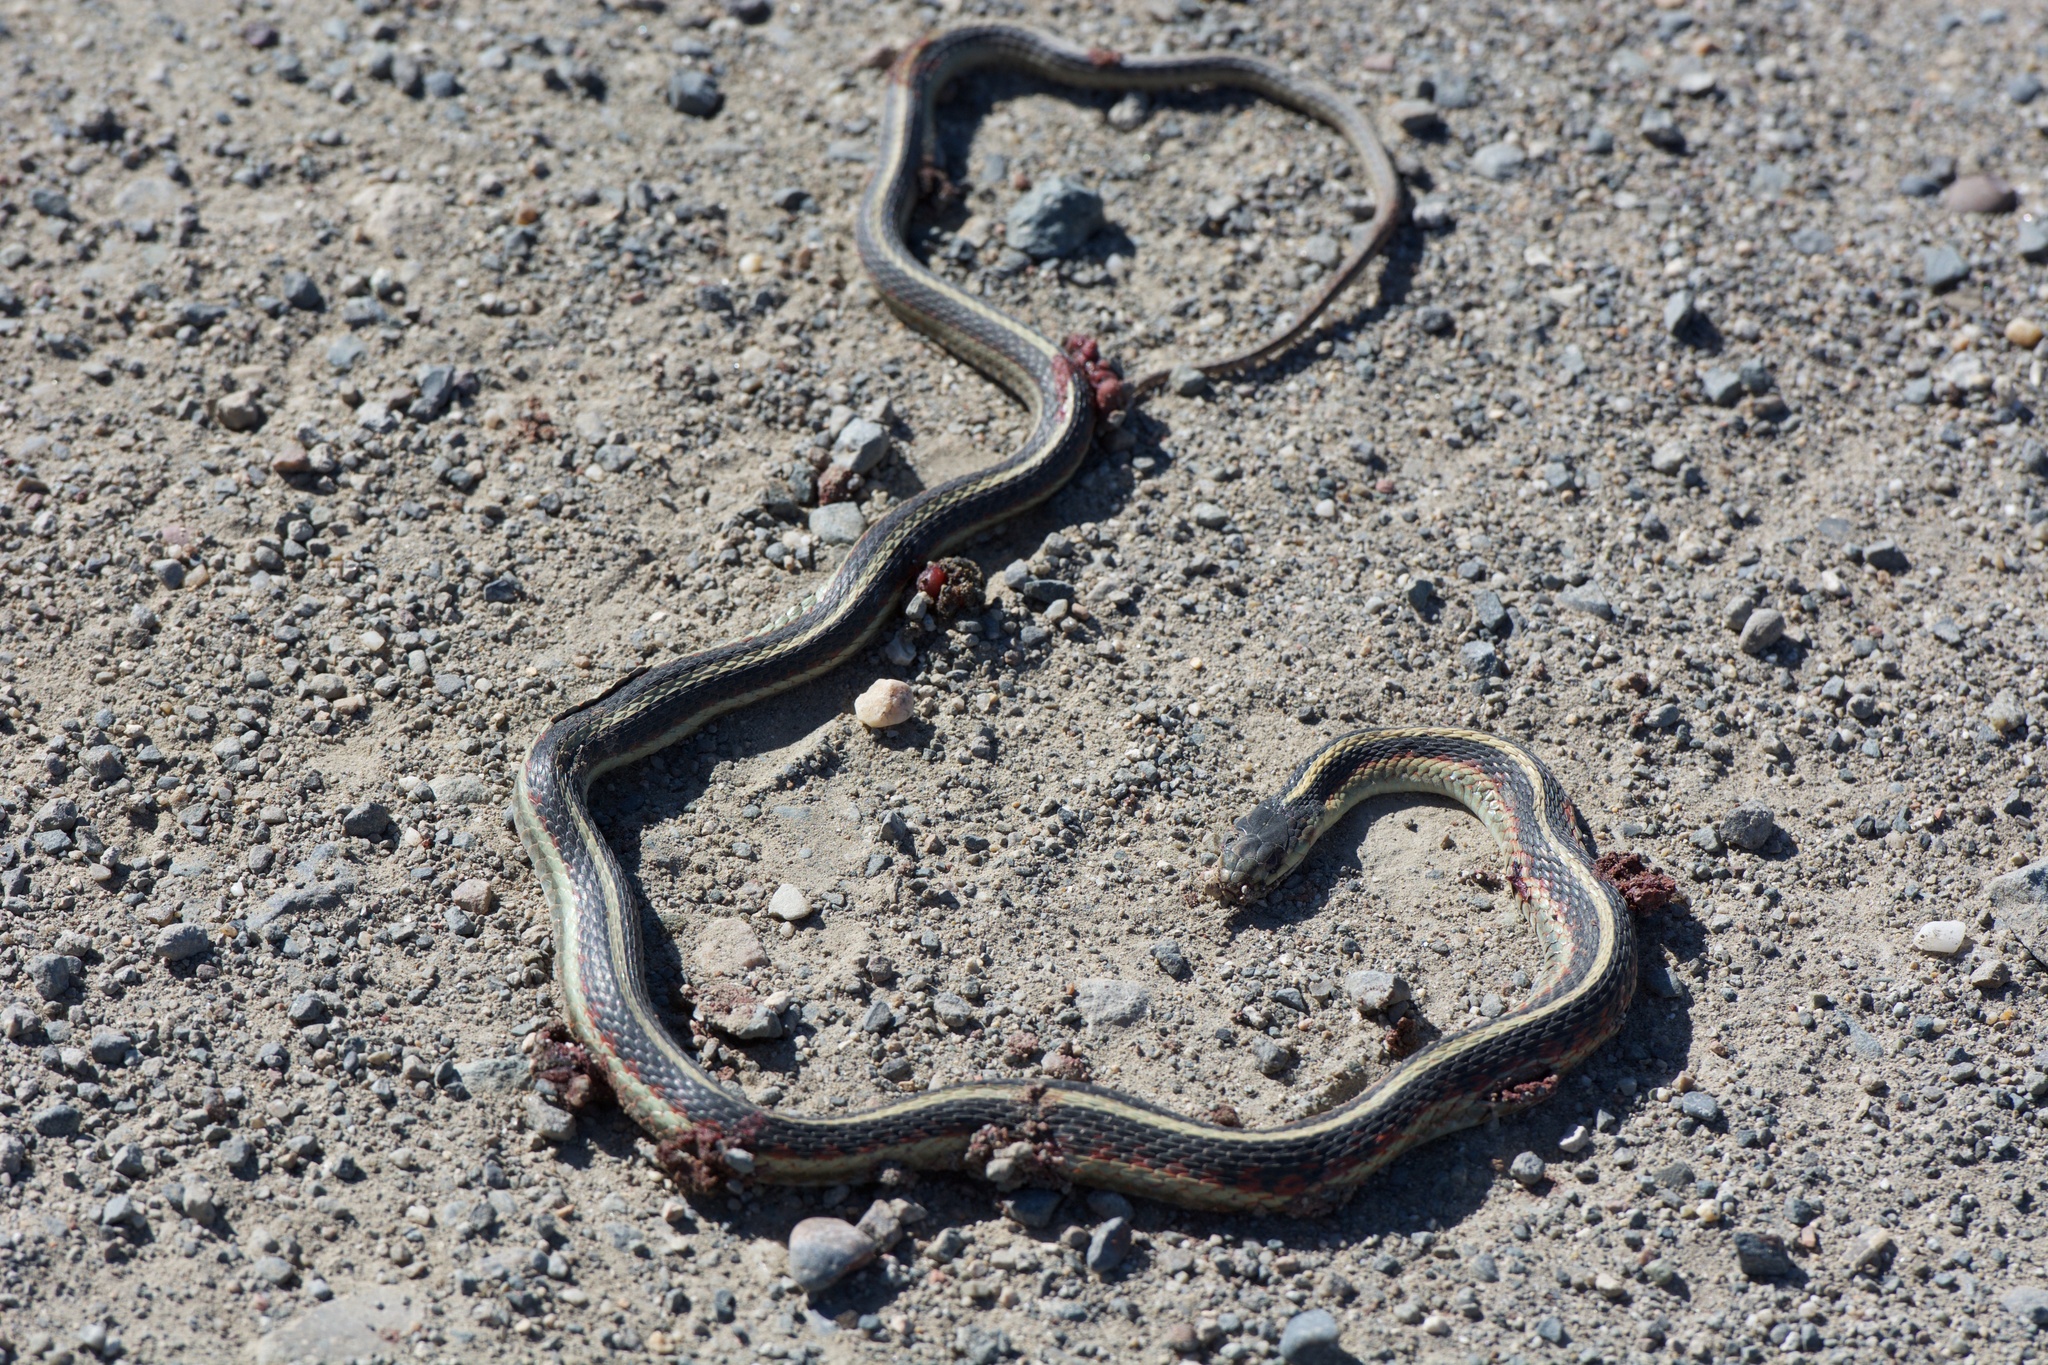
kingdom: Animalia
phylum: Chordata
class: Squamata
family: Colubridae
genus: Thamnophis
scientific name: Thamnophis sirtalis
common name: Common garter snake
